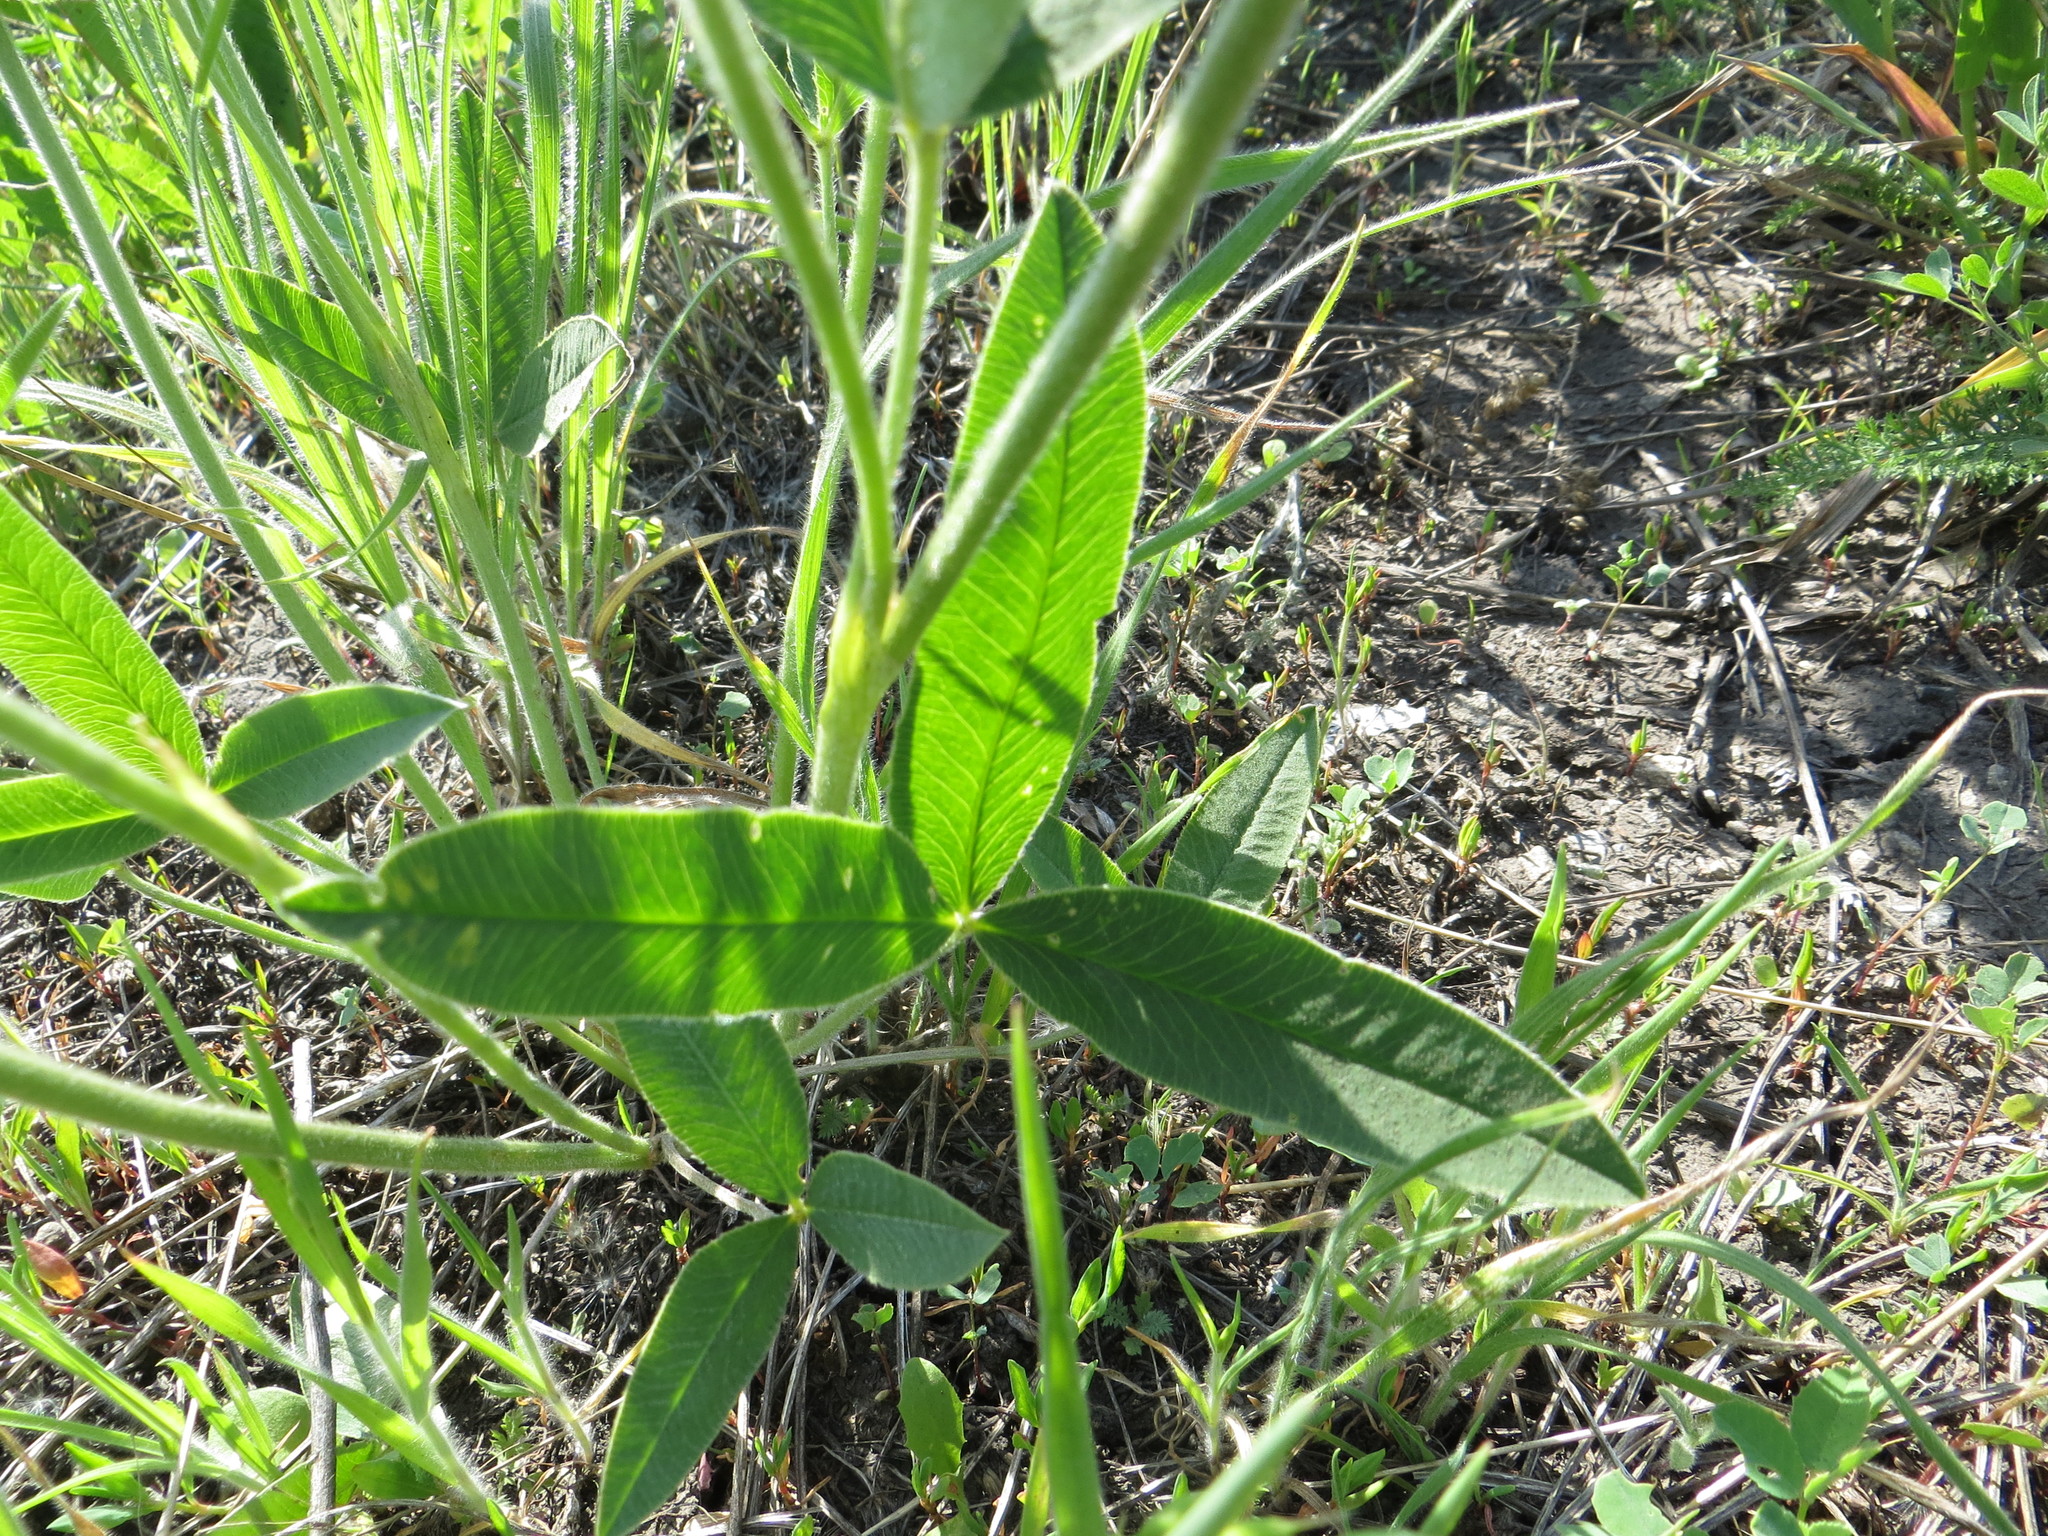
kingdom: Plantae
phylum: Tracheophyta
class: Magnoliopsida
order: Fabales
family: Fabaceae
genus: Trifolium
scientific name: Trifolium montanum
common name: Mountain clover
